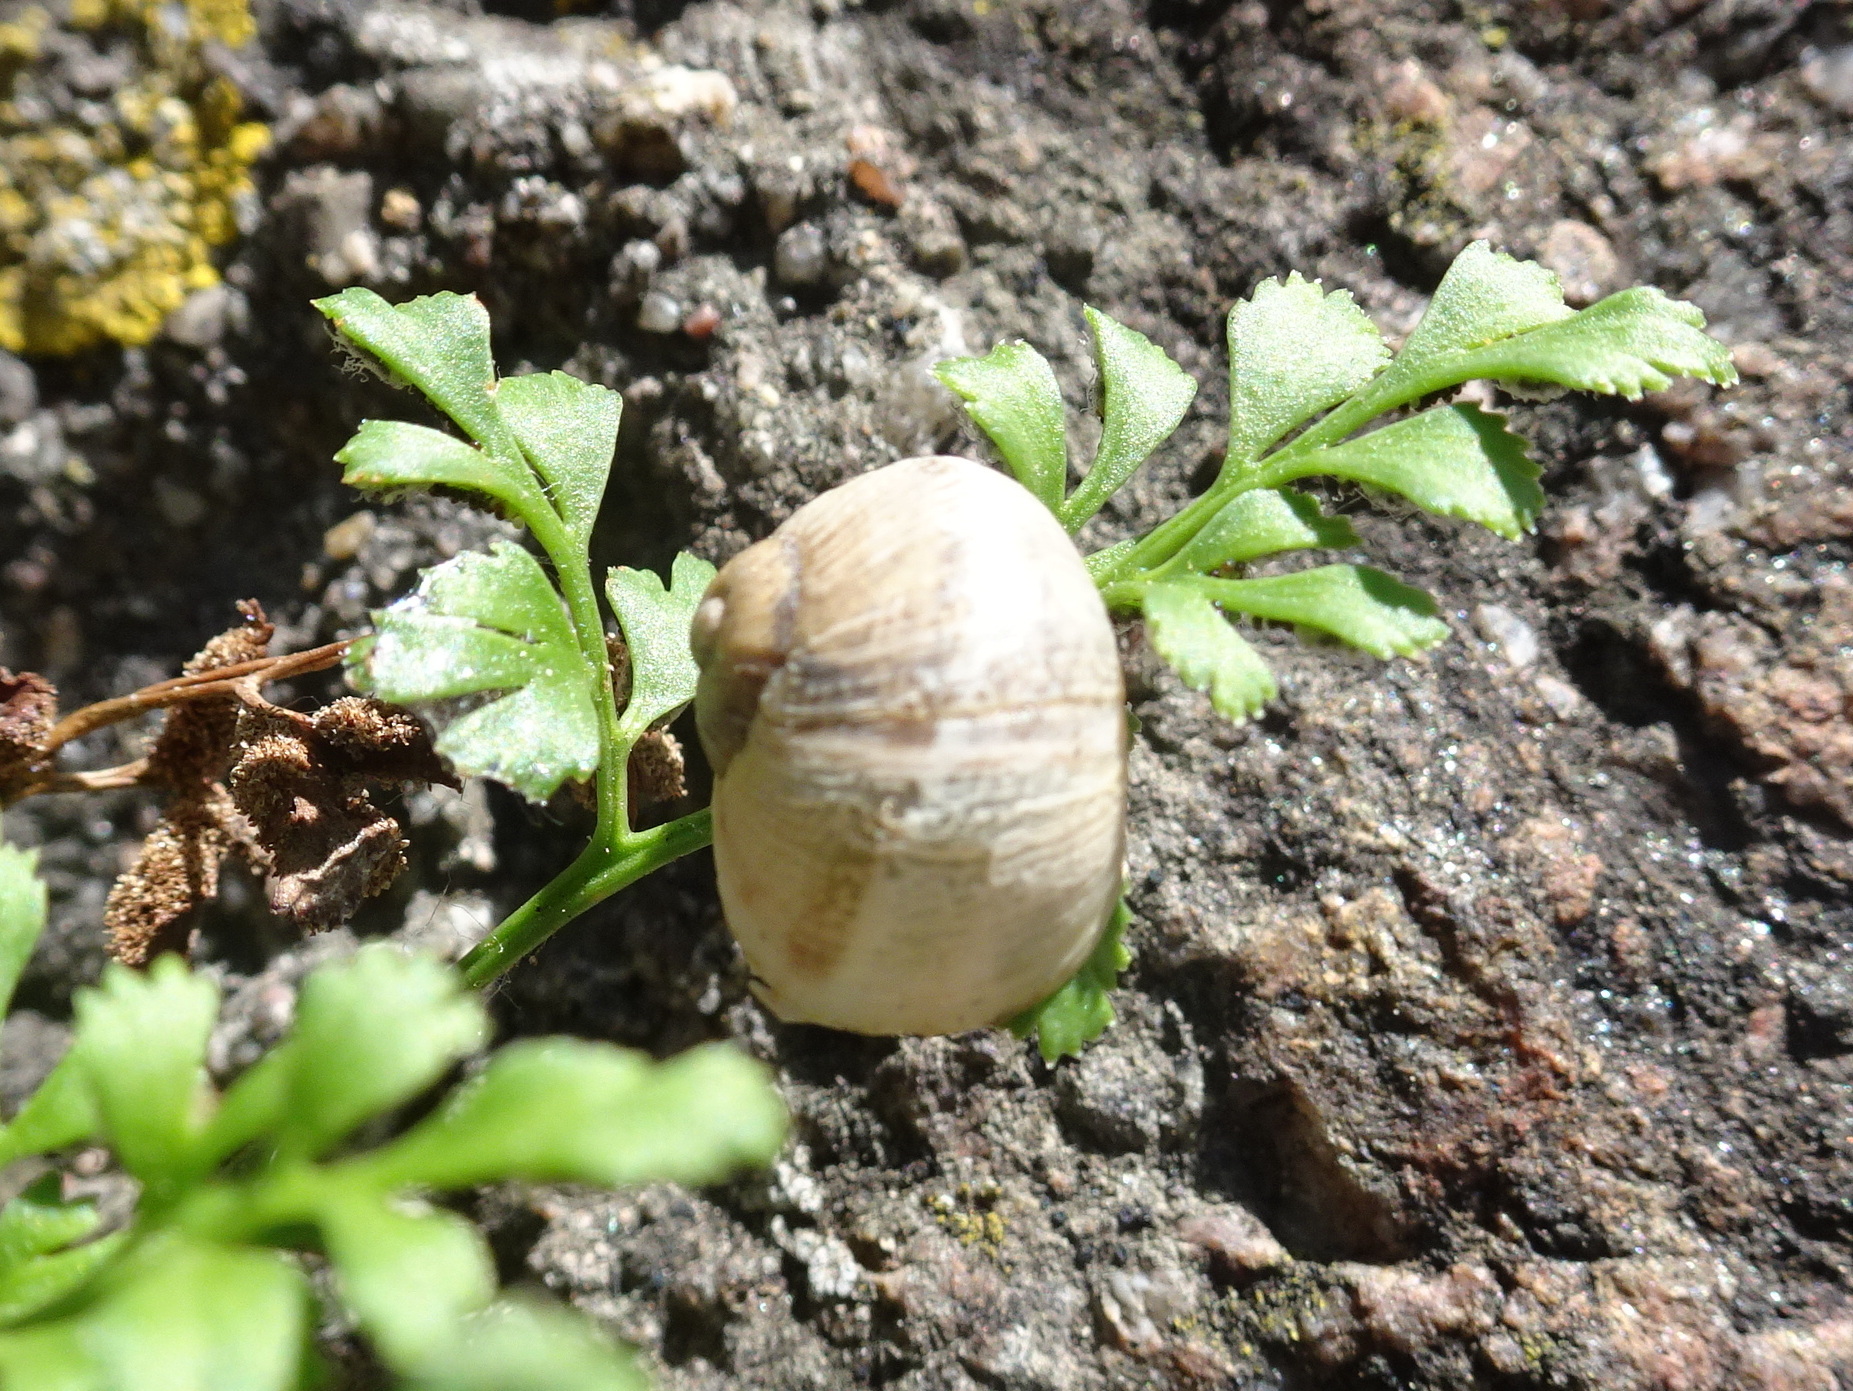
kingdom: Animalia
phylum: Mollusca
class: Gastropoda
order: Stylommatophora
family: Helicidae
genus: Cornu
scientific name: Cornu aspersum
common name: Brown garden snail
